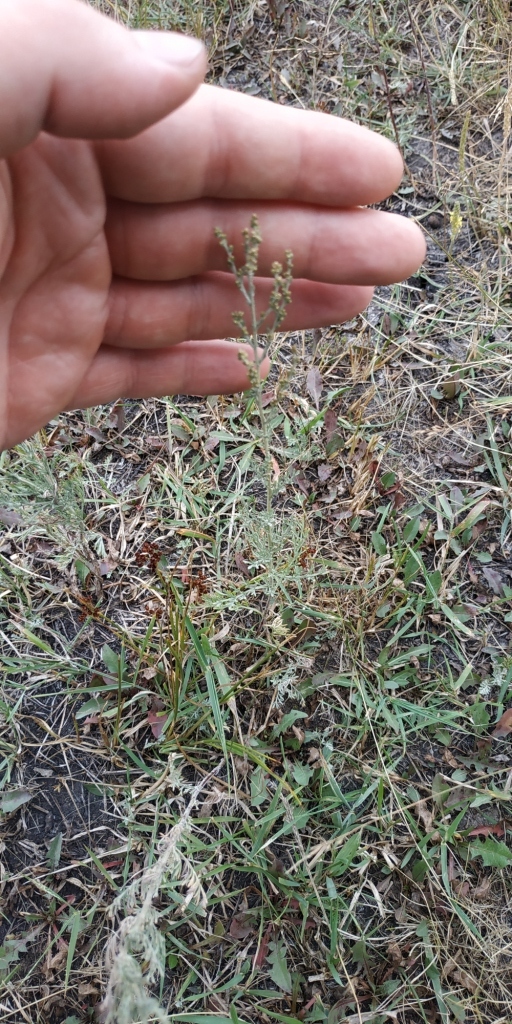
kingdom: Plantae
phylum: Tracheophyta
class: Magnoliopsida
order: Asterales
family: Asteraceae
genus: Artemisia
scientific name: Artemisia nitrosa
